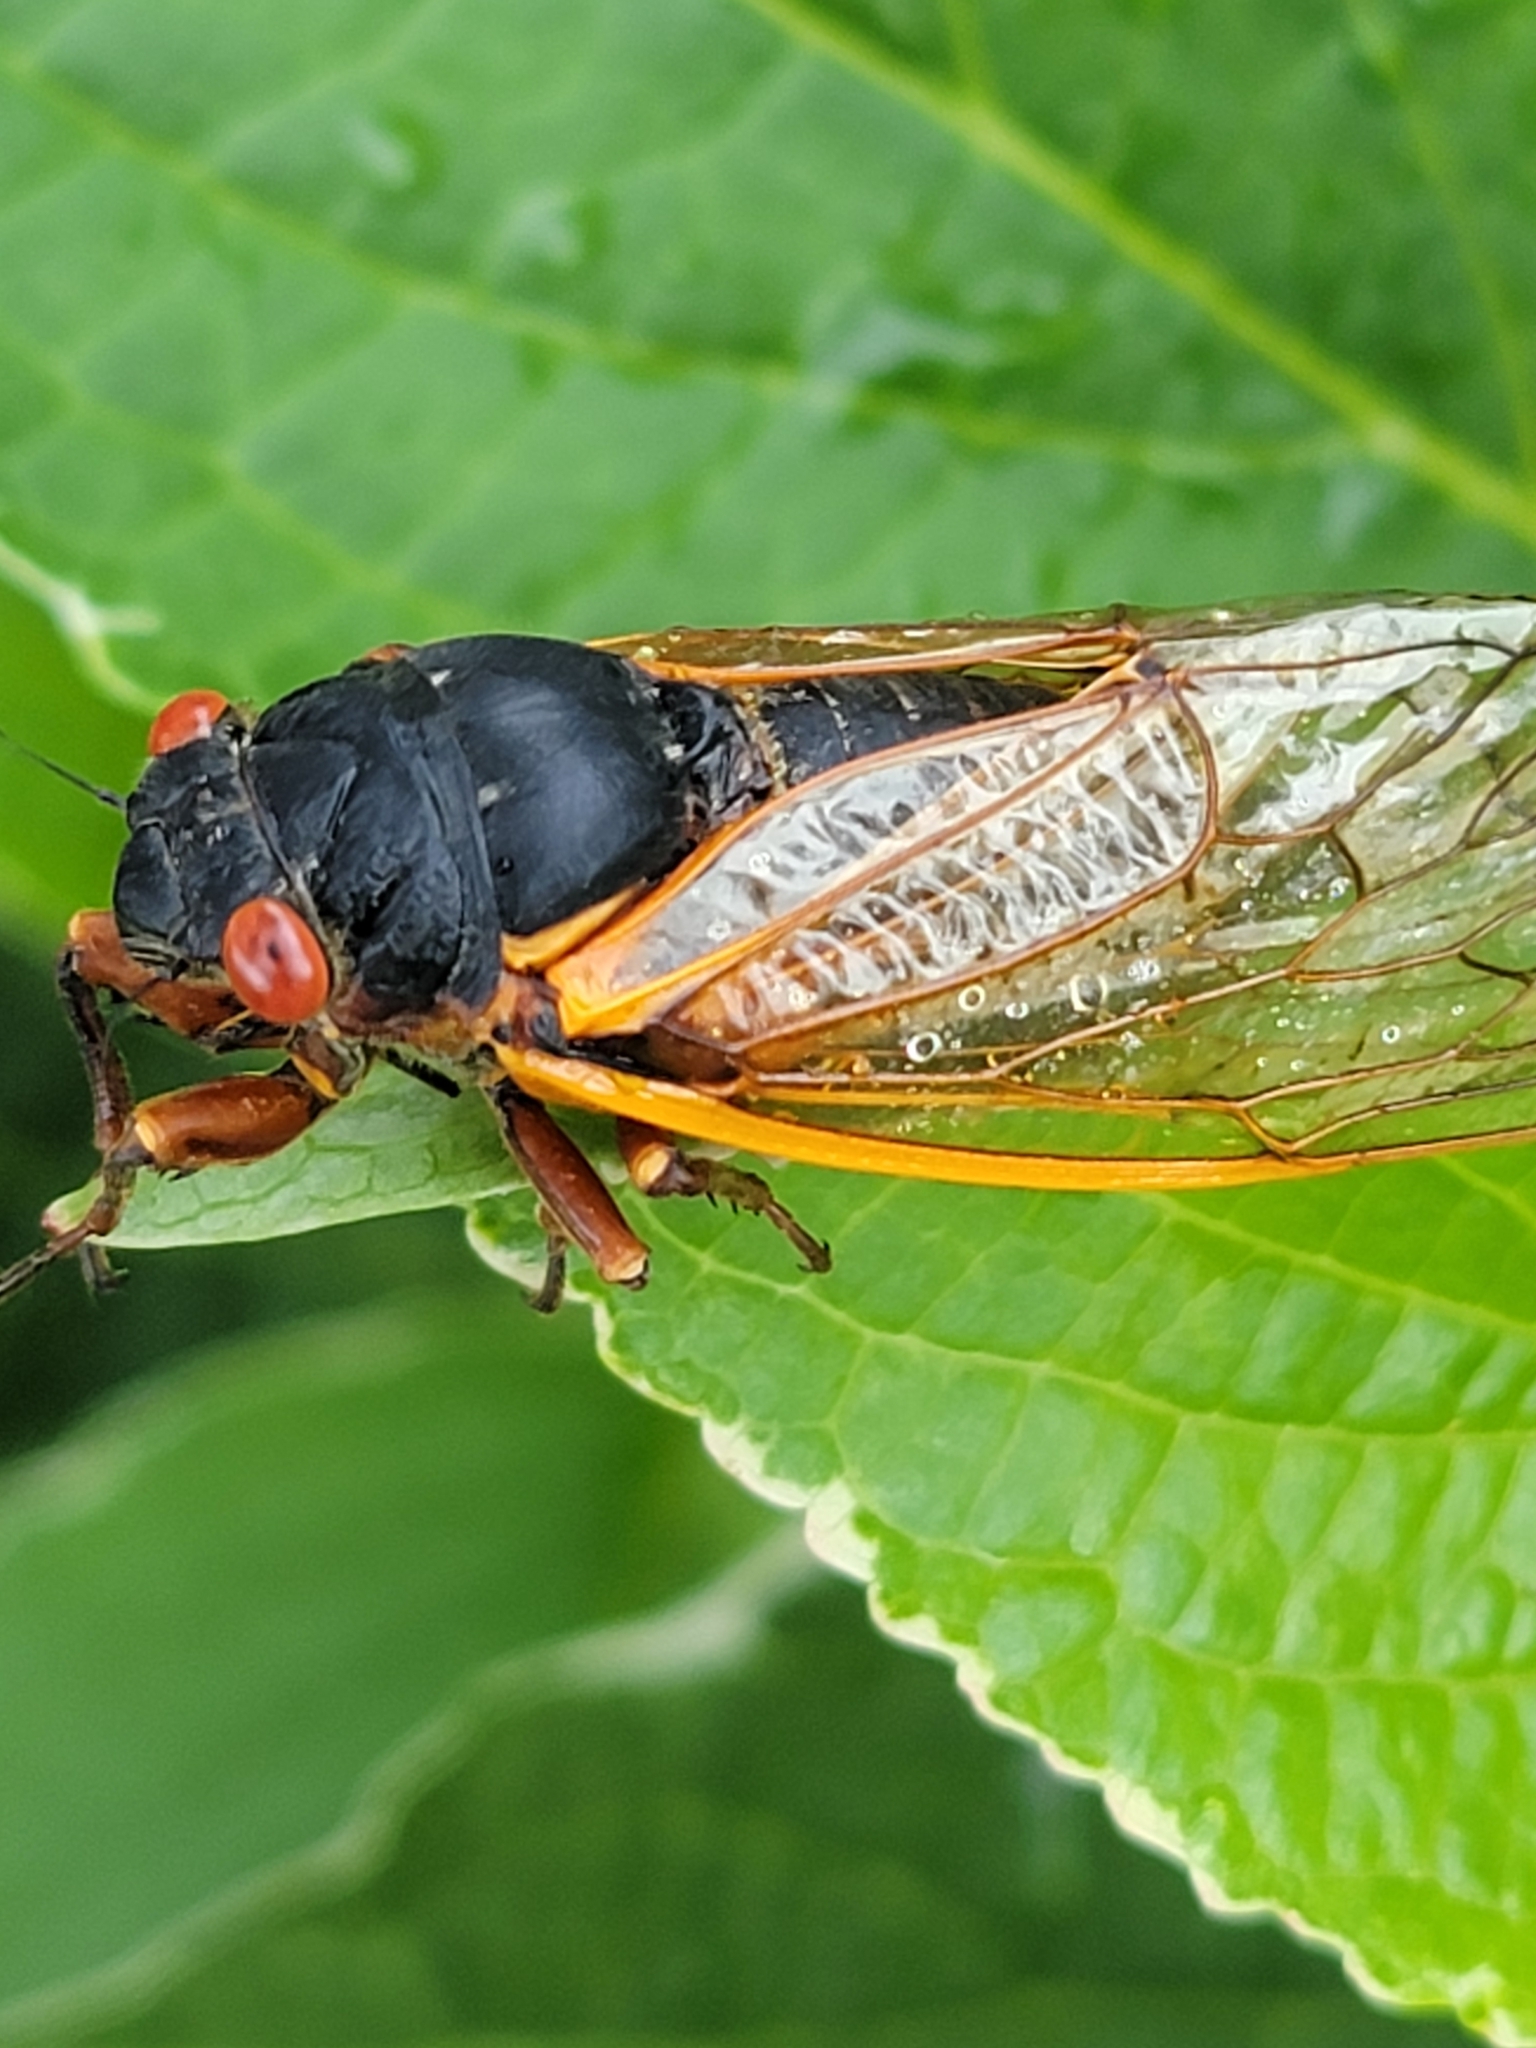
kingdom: Animalia
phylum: Arthropoda
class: Insecta
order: Hemiptera
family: Cicadidae
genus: Magicicada
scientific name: Magicicada septendecim
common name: Periodical cicada
